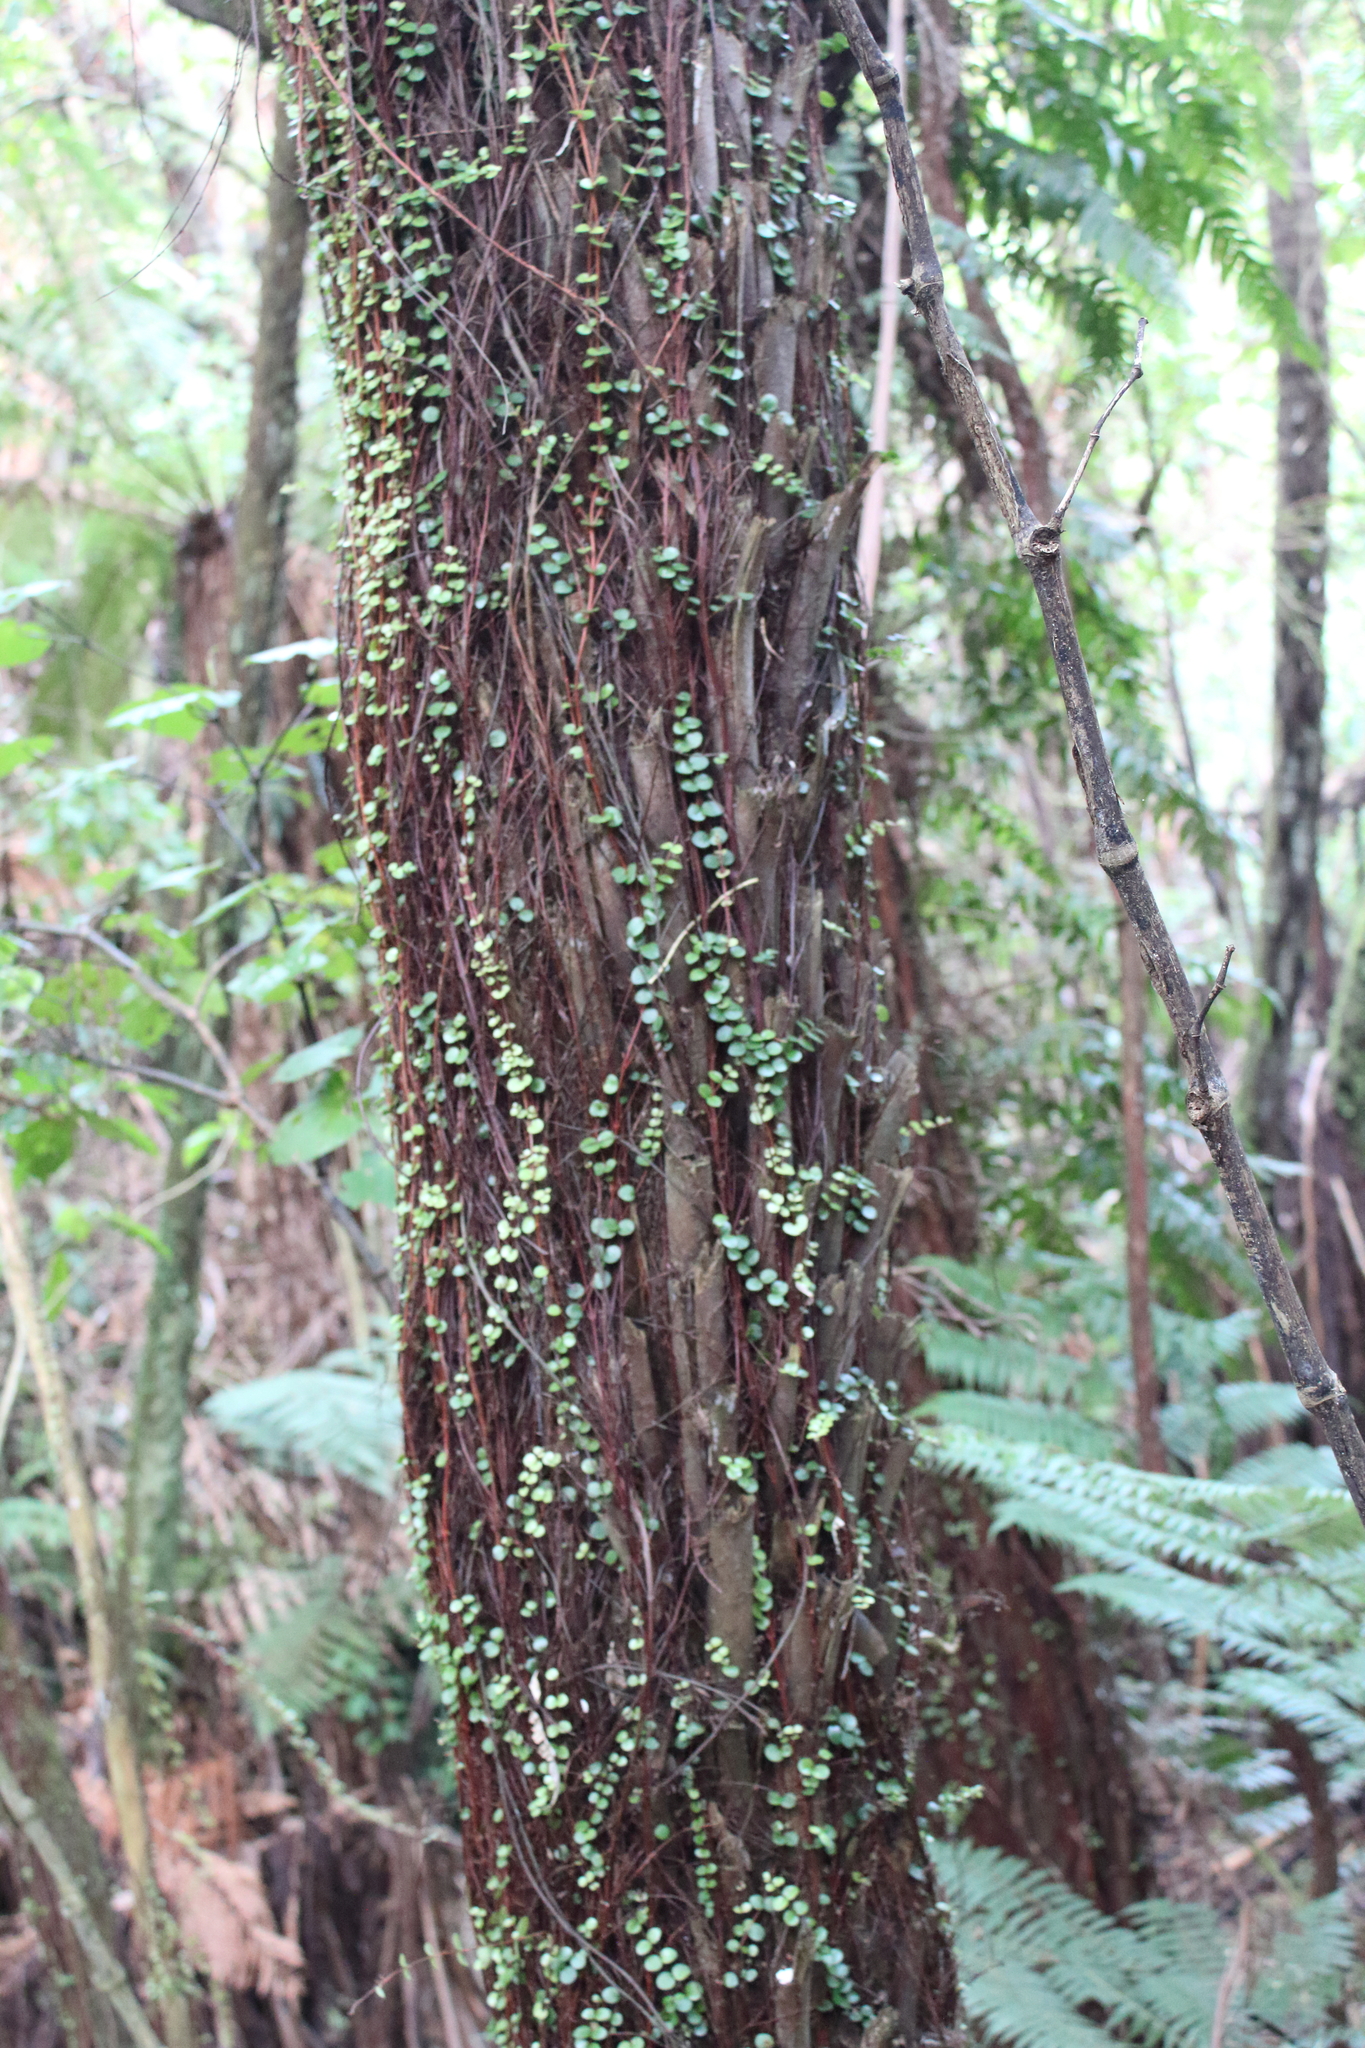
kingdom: Plantae
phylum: Tracheophyta
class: Magnoliopsida
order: Myrtales
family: Myrtaceae
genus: Metrosideros
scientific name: Metrosideros perforata
